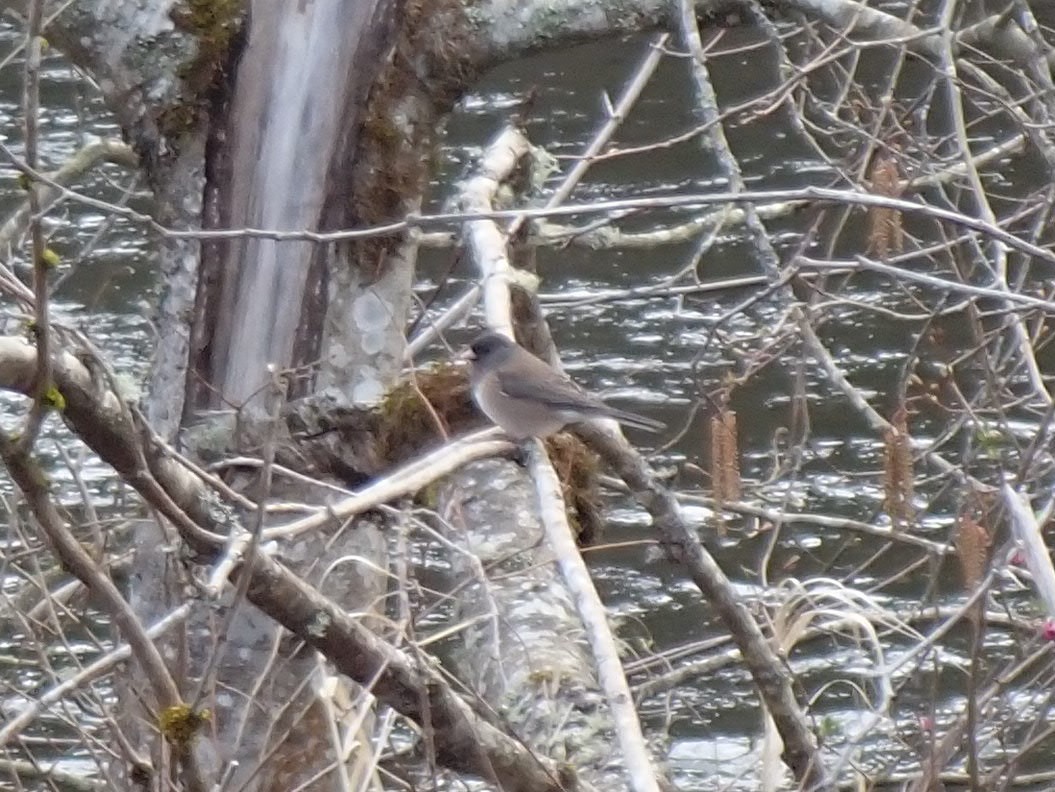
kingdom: Animalia
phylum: Chordata
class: Aves
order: Passeriformes
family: Passerellidae
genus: Junco
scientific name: Junco hyemalis
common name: Dark-eyed junco
